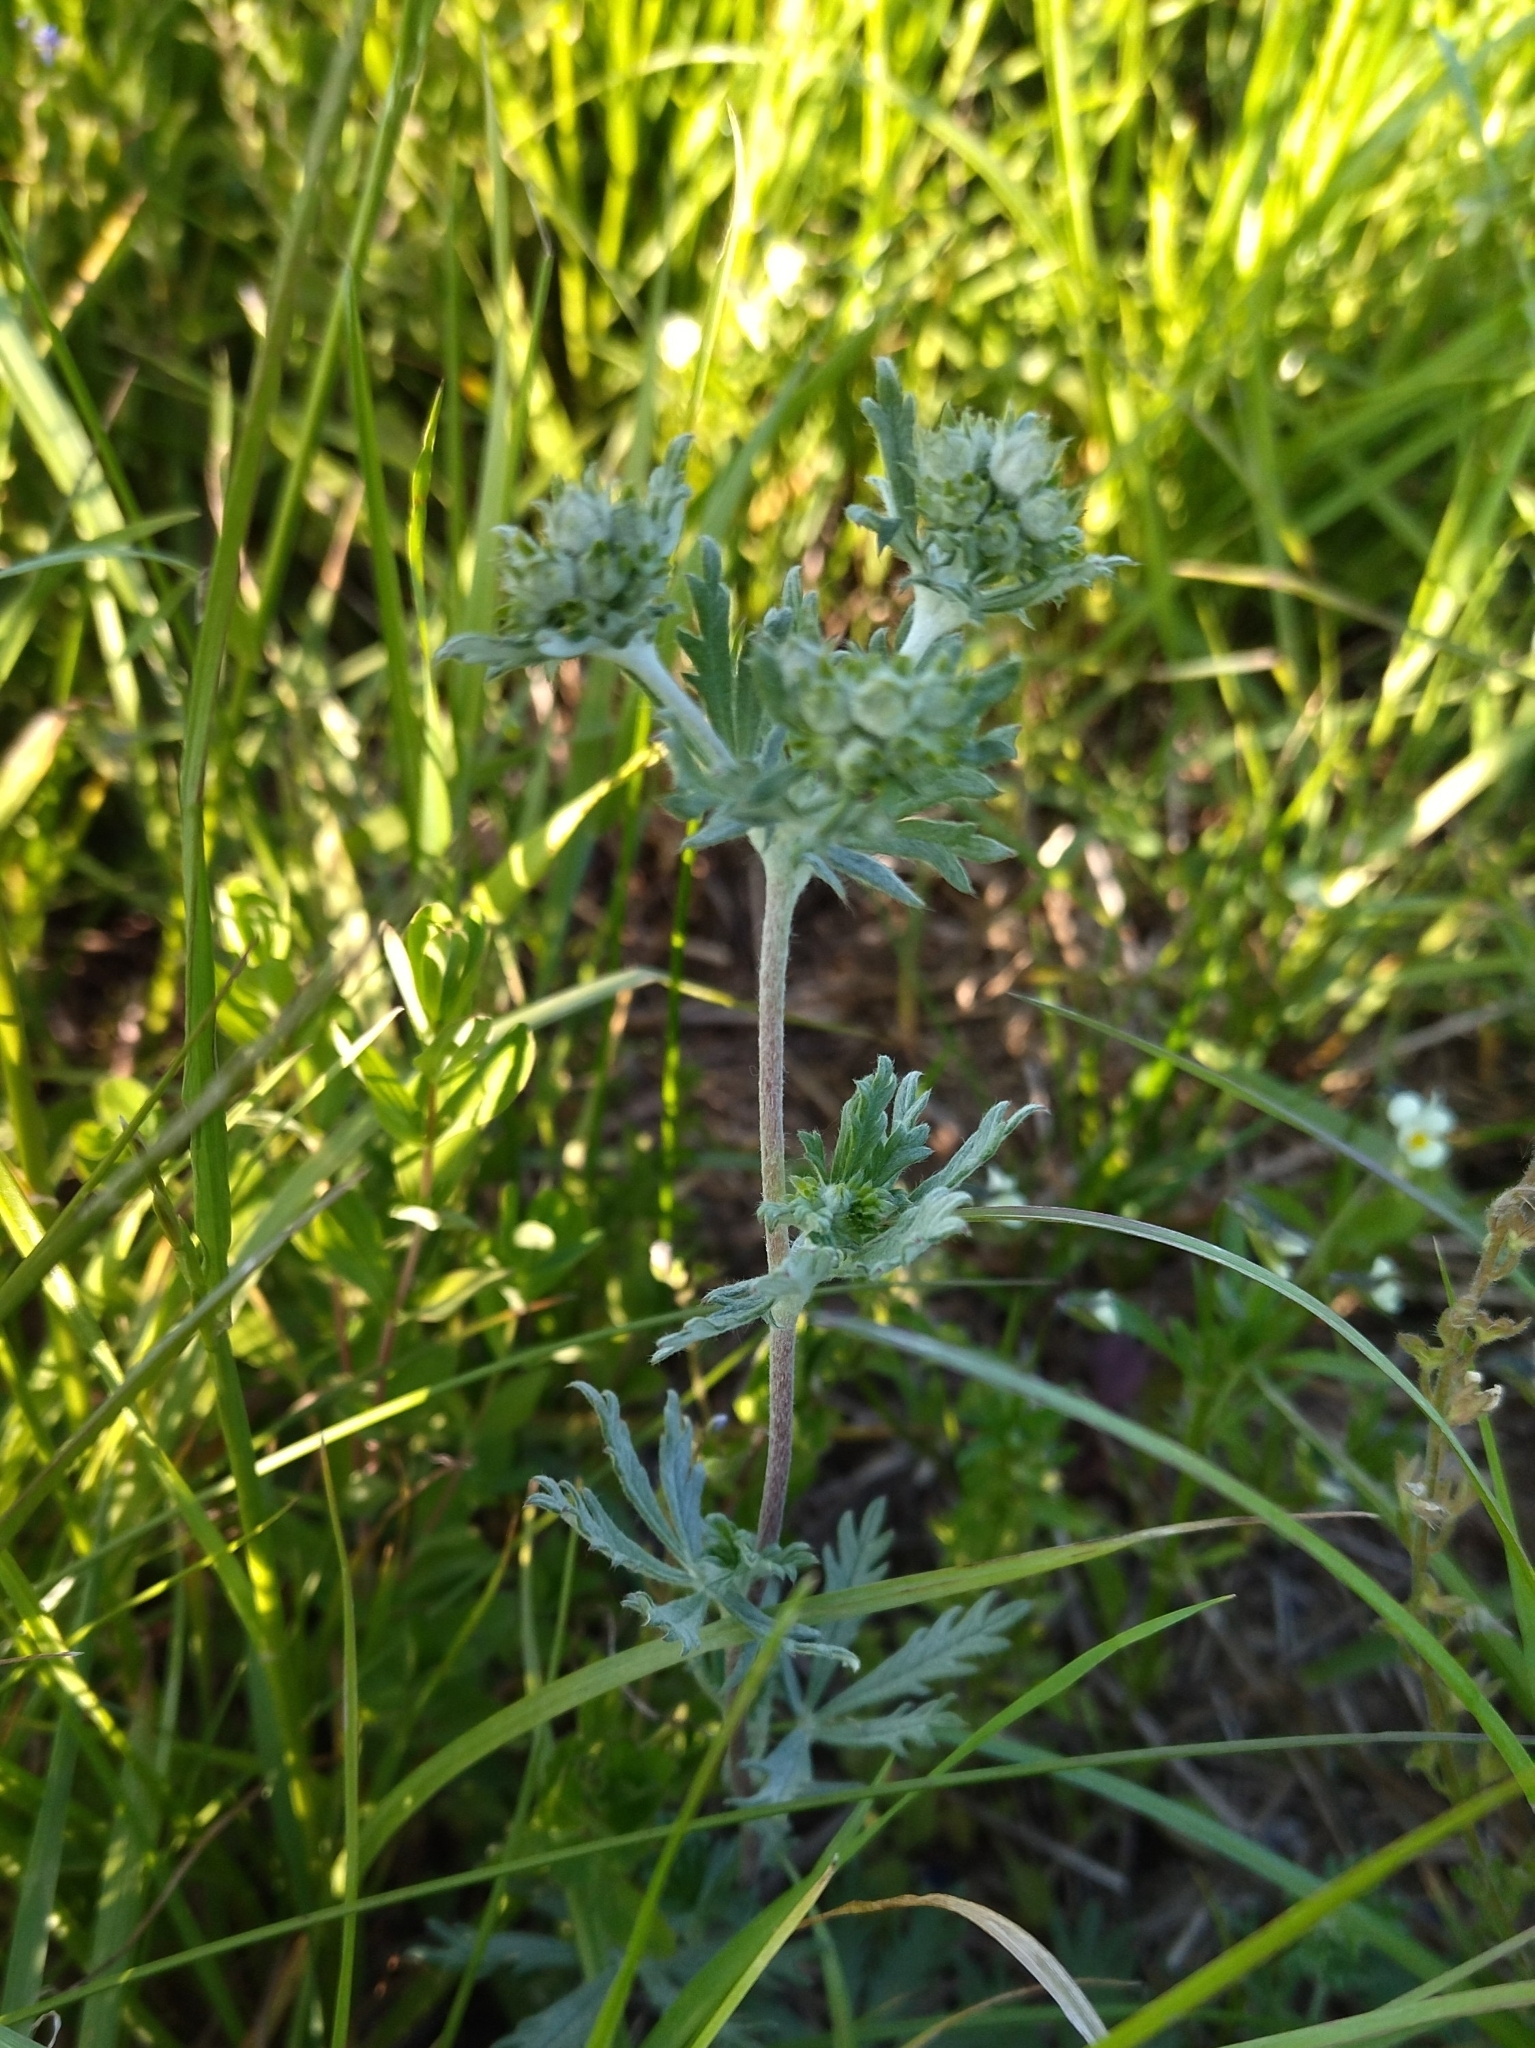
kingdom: Plantae
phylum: Tracheophyta
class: Magnoliopsida
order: Rosales
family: Rosaceae
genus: Potentilla
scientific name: Potentilla argentea
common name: Hoary cinquefoil
